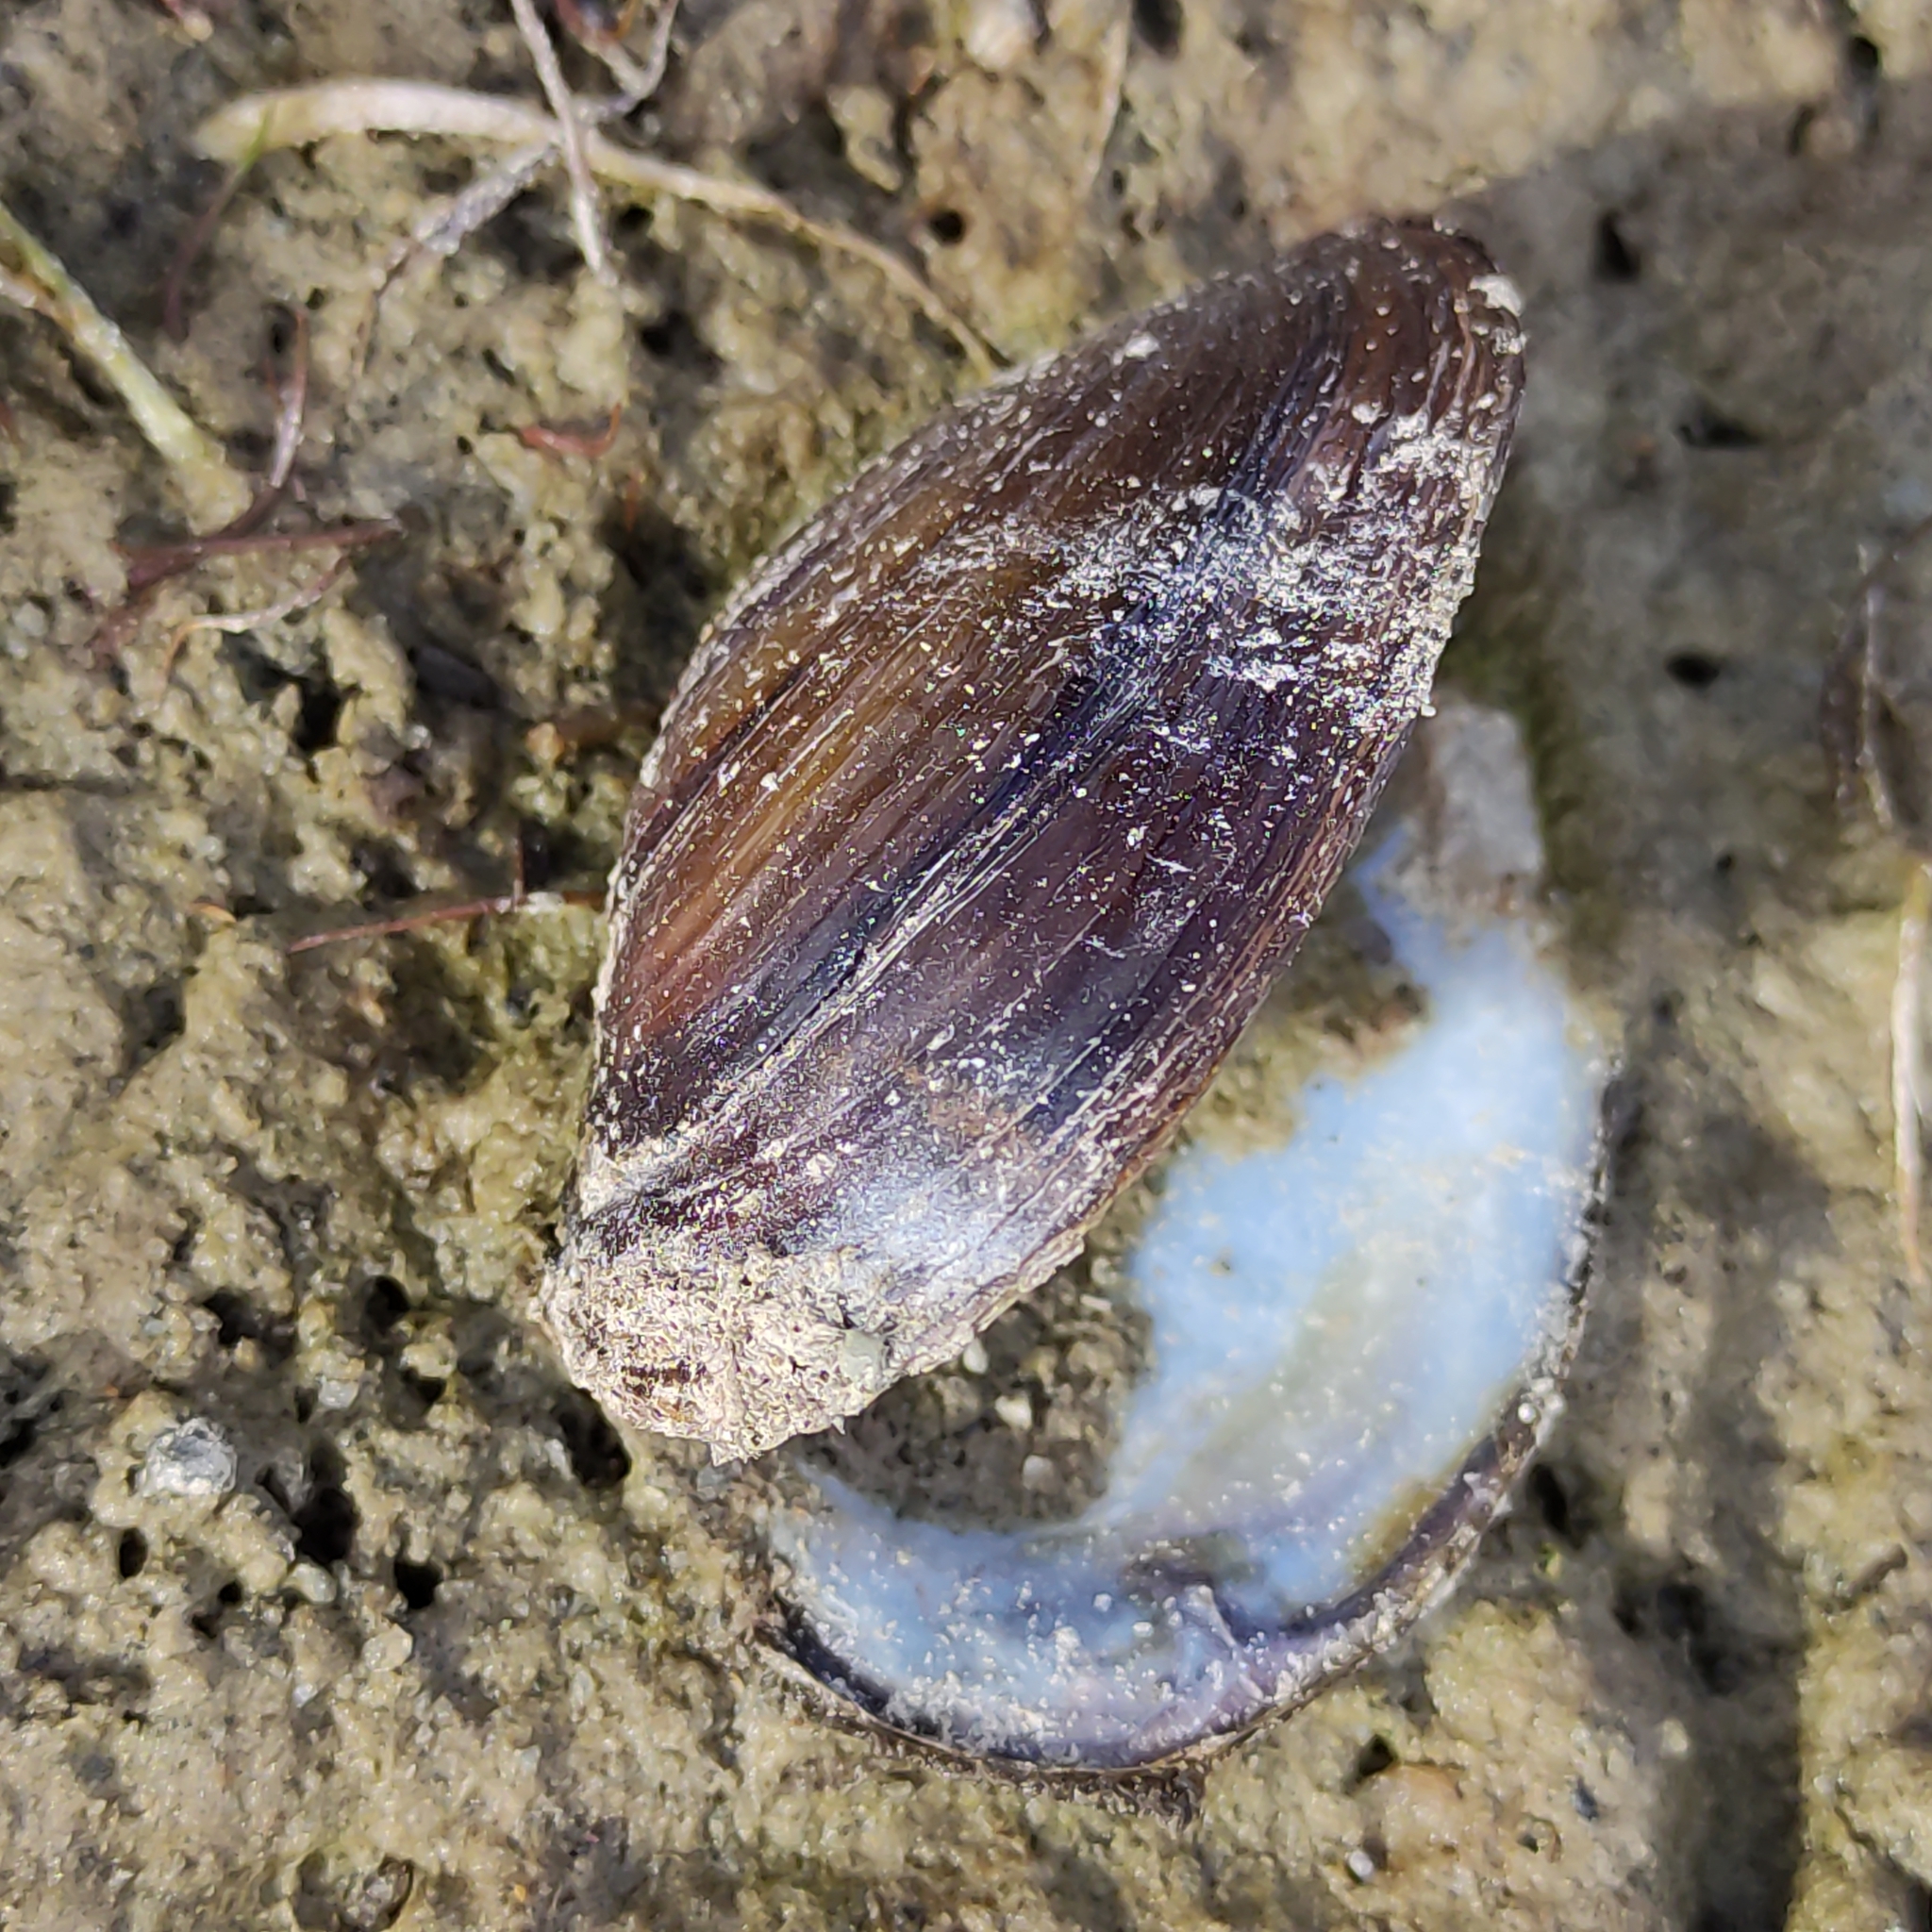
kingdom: Animalia
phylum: Mollusca
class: Bivalvia
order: Unionida
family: Hyriidae
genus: Echyridella
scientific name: Echyridella menziesii
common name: New zealand freshwater mussel
